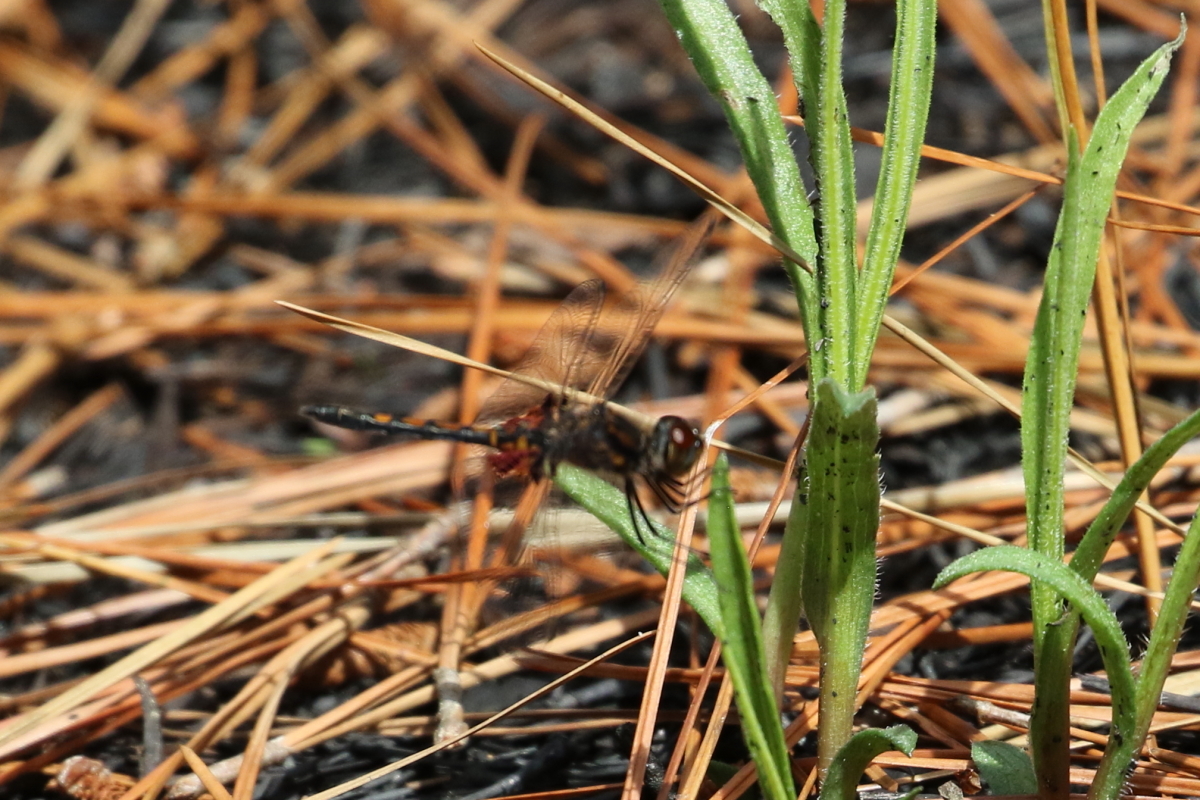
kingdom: Animalia
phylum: Arthropoda
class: Insecta
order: Odonata
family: Libellulidae
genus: Celithemis
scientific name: Celithemis ornata
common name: Ornate pennant
